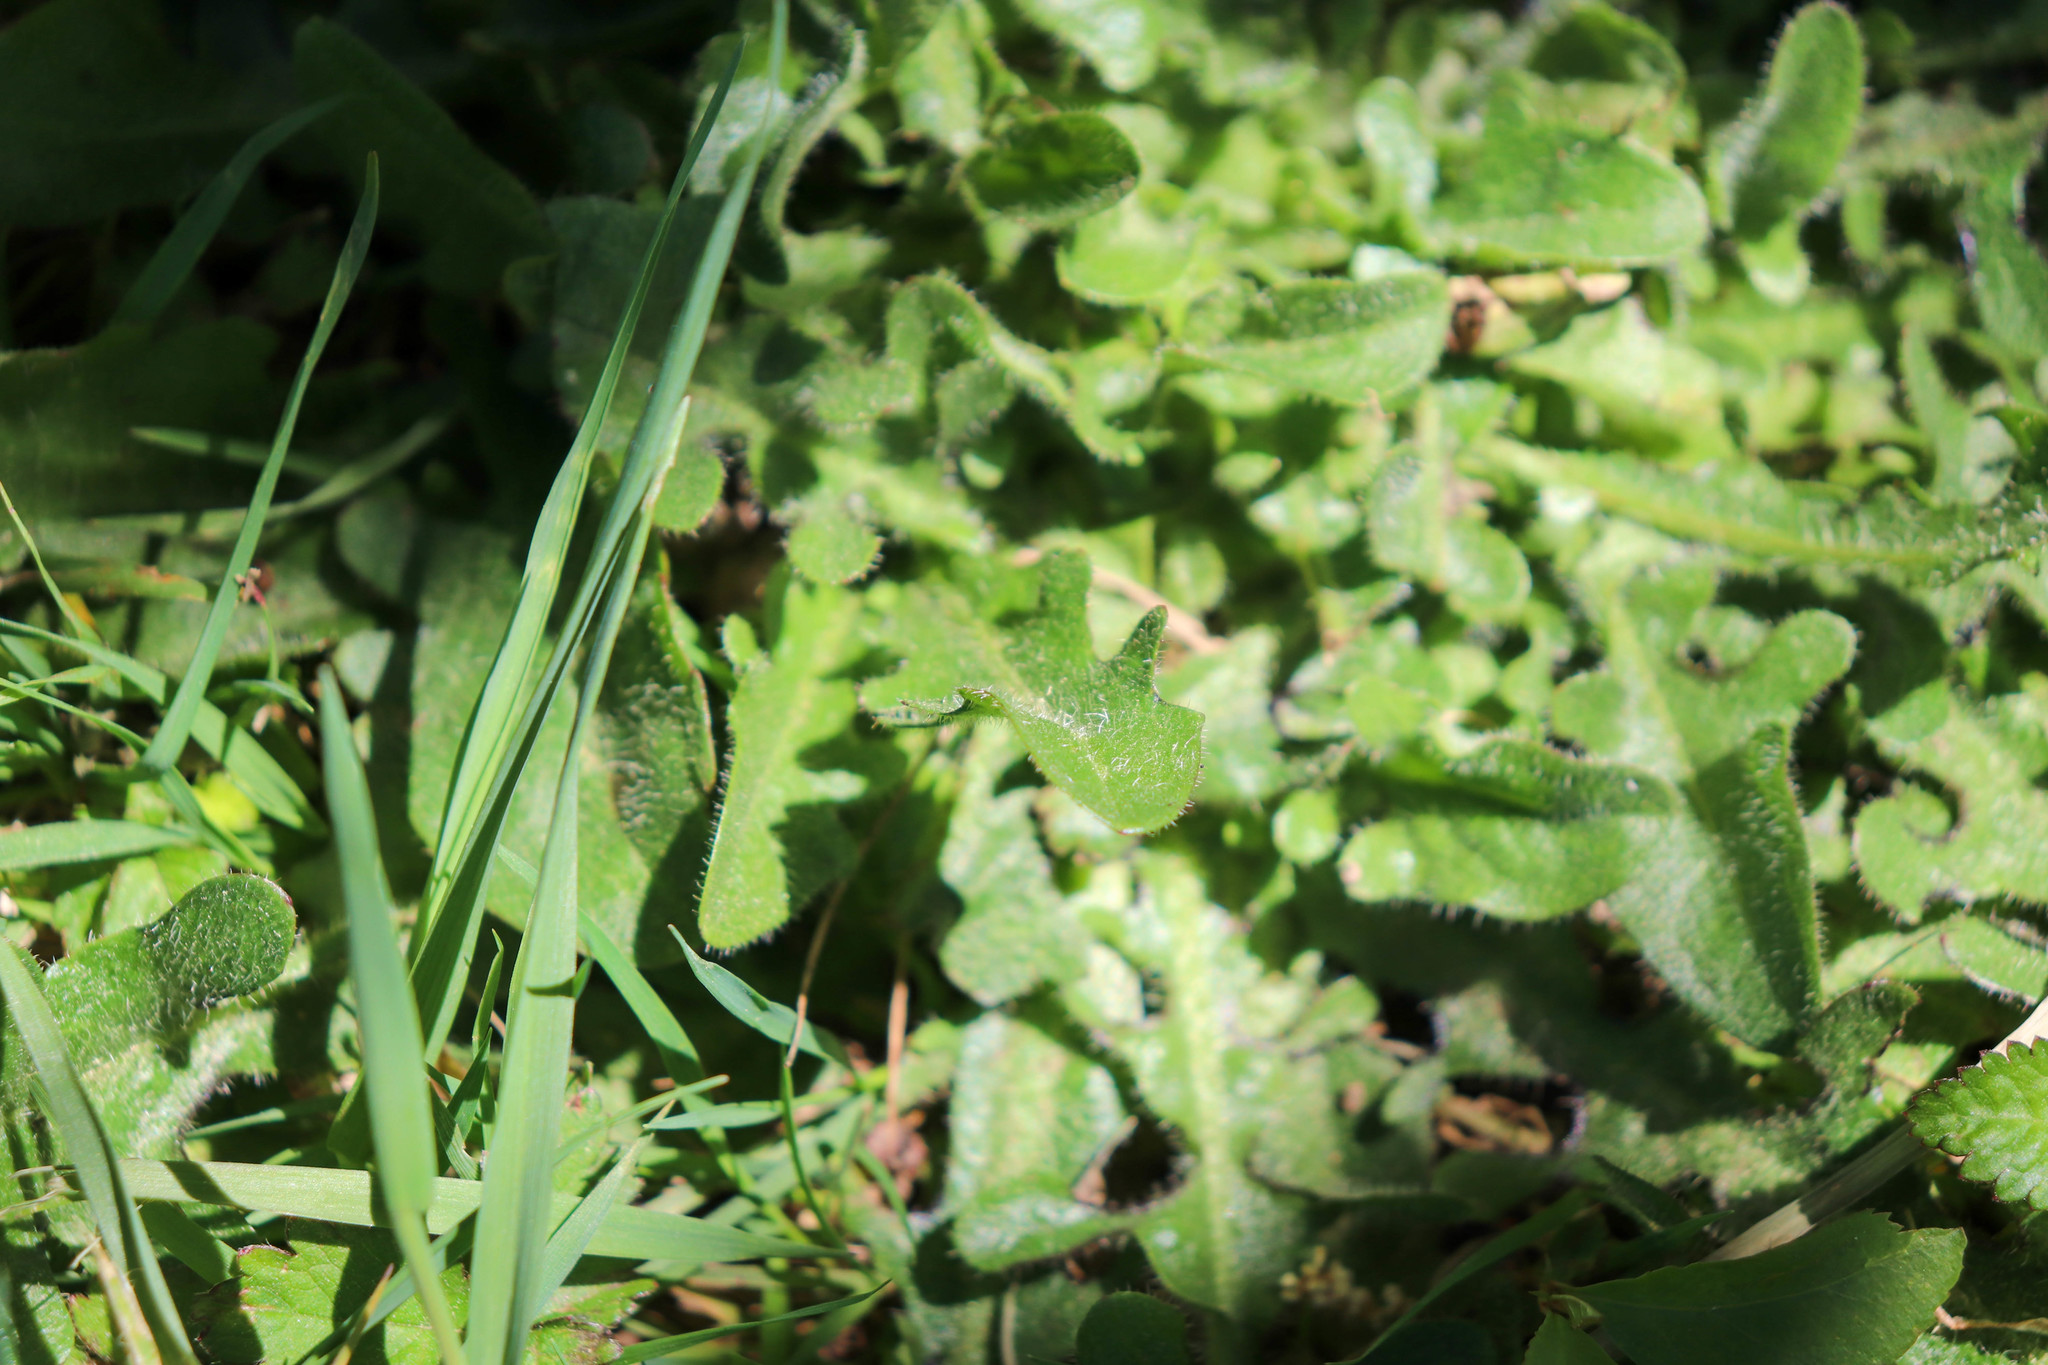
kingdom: Plantae
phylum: Tracheophyta
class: Magnoliopsida
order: Asterales
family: Asteraceae
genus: Hypochaeris
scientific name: Hypochaeris radicata
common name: Flatweed
